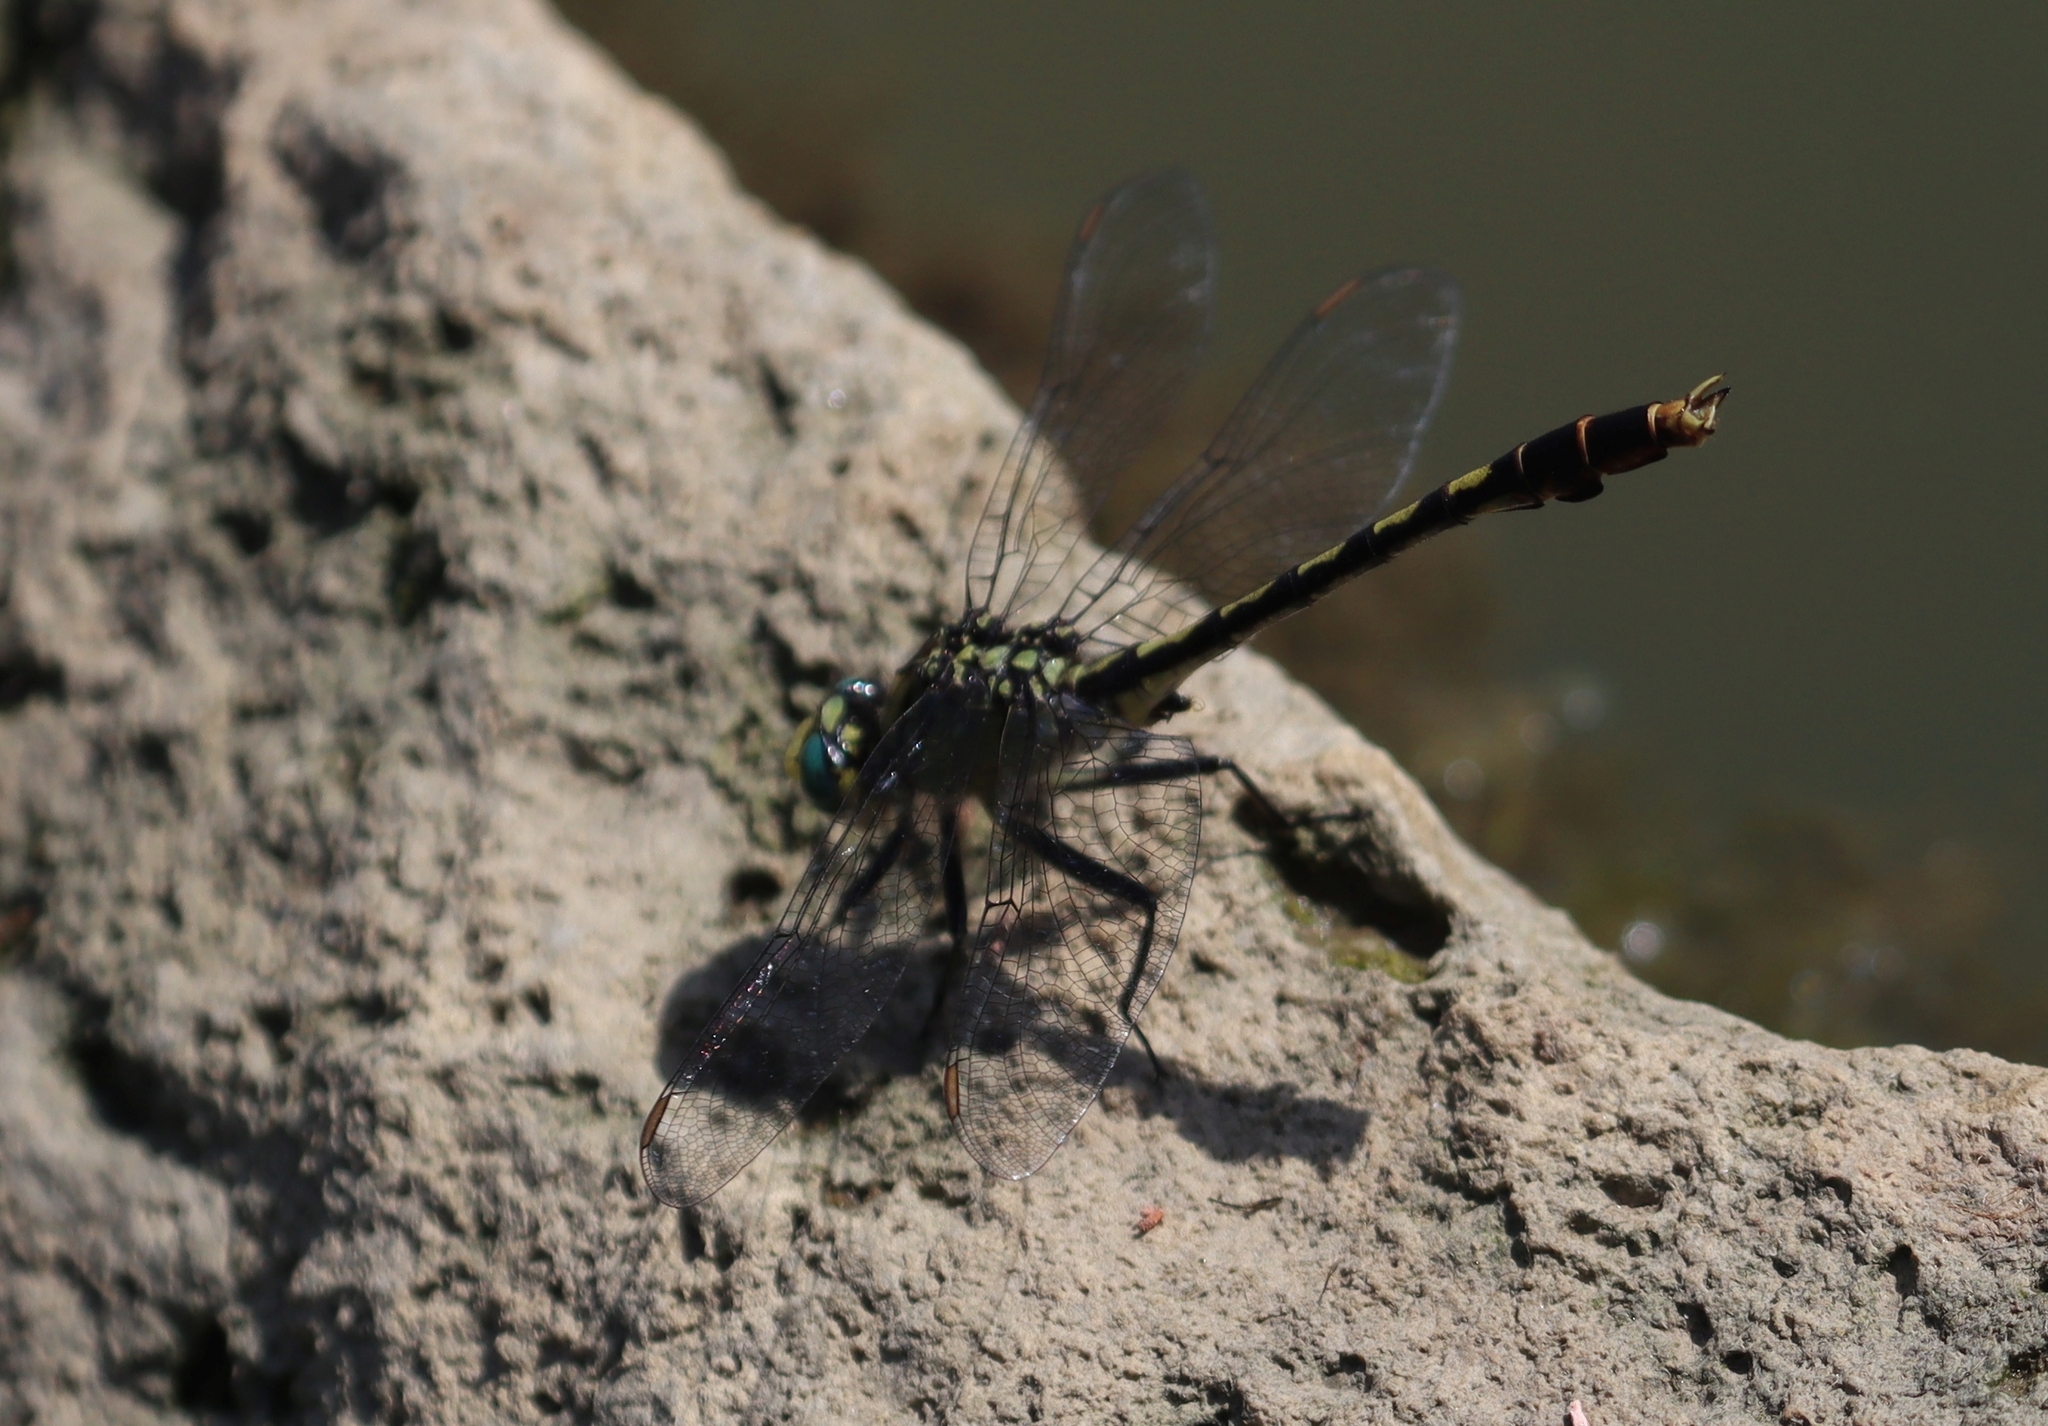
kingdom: Animalia
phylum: Arthropoda
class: Insecta
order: Odonata
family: Gomphidae
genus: Arigomphus
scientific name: Arigomphus villosipes
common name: Unicorn clubtail
